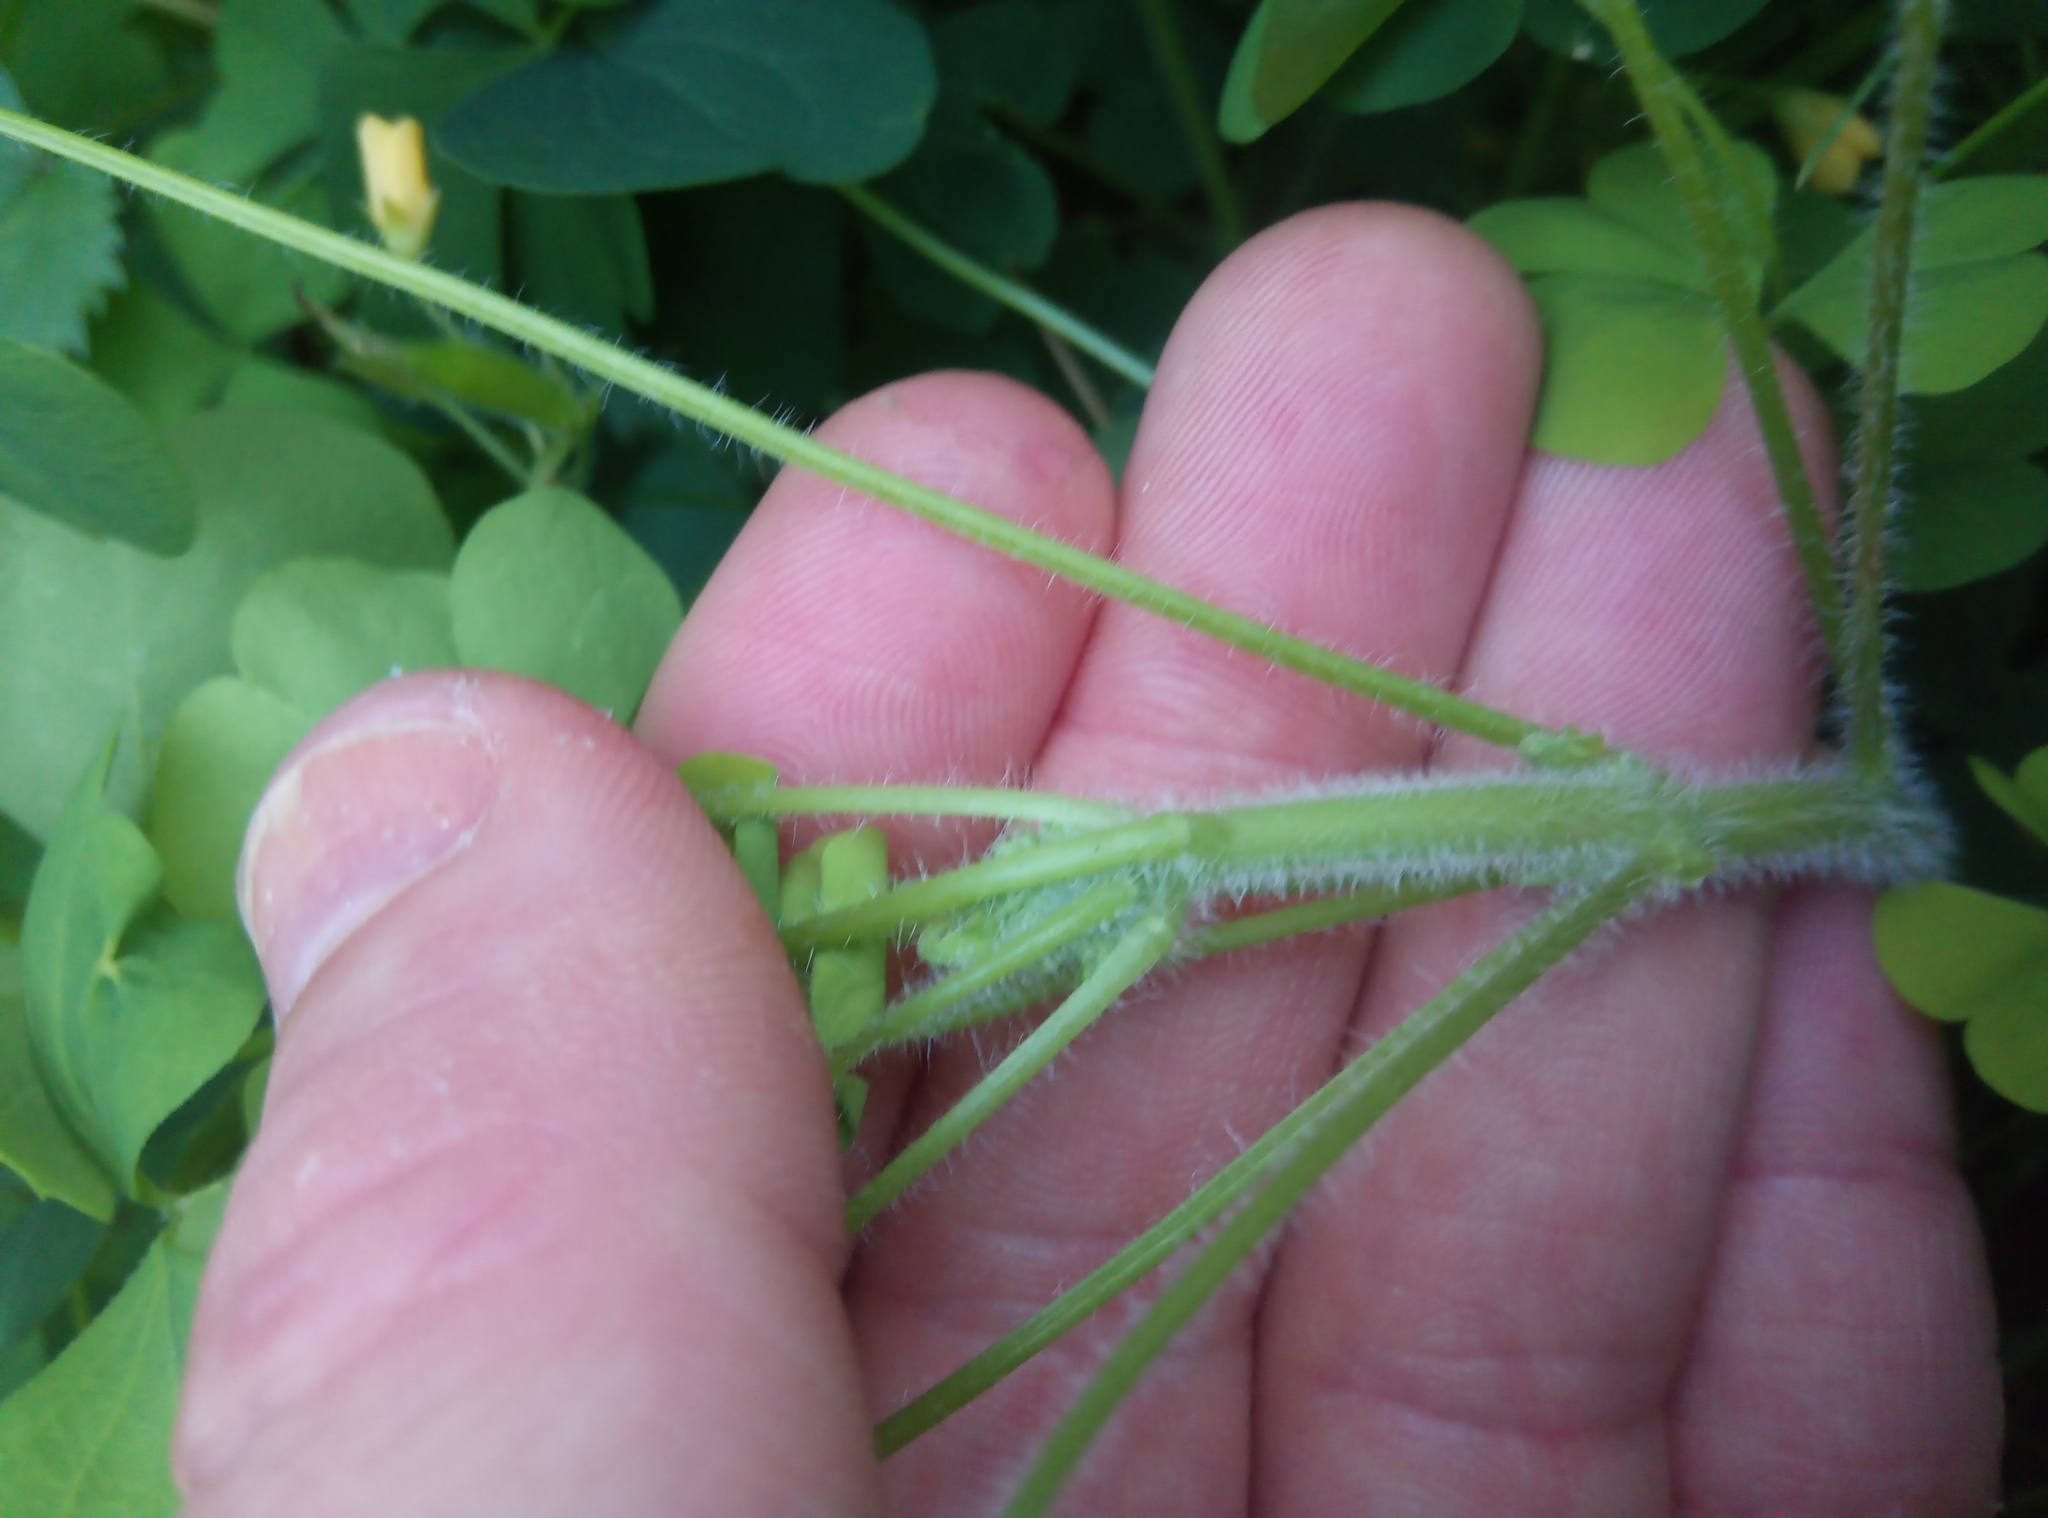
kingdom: Plantae
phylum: Tracheophyta
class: Magnoliopsida
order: Oxalidales
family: Oxalidaceae
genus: Oxalis
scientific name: Oxalis stricta
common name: Upright yellow-sorrel
